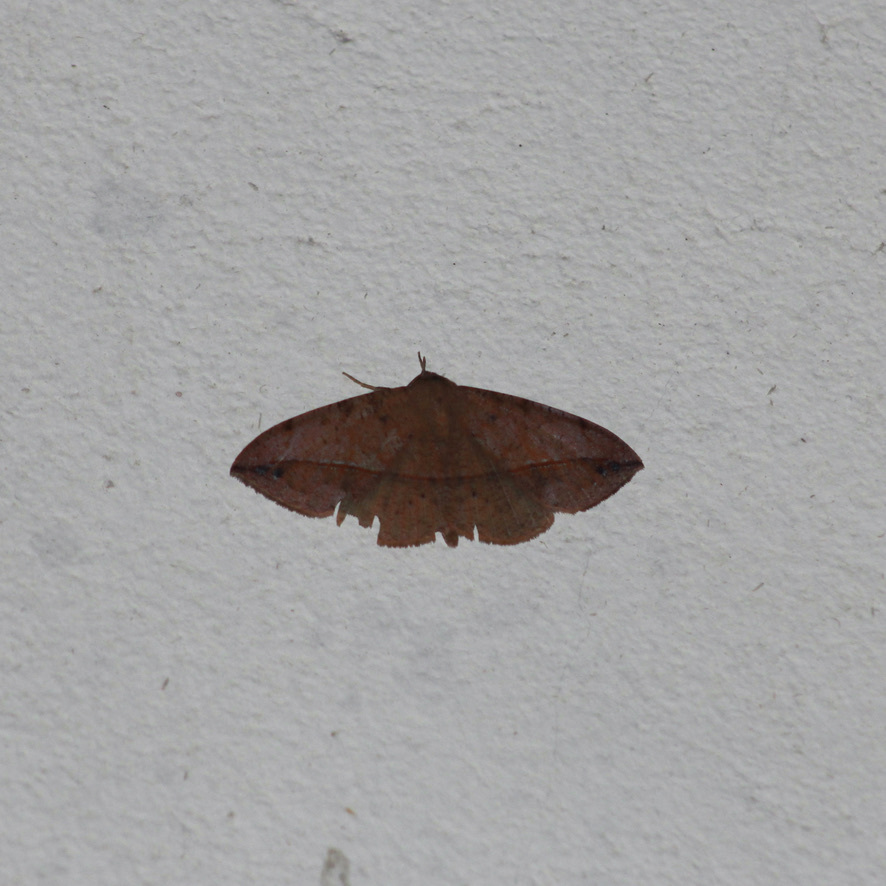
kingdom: Animalia
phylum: Arthropoda
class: Insecta
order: Lepidoptera
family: Erebidae
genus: Gorgone
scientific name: Gorgone augusta
